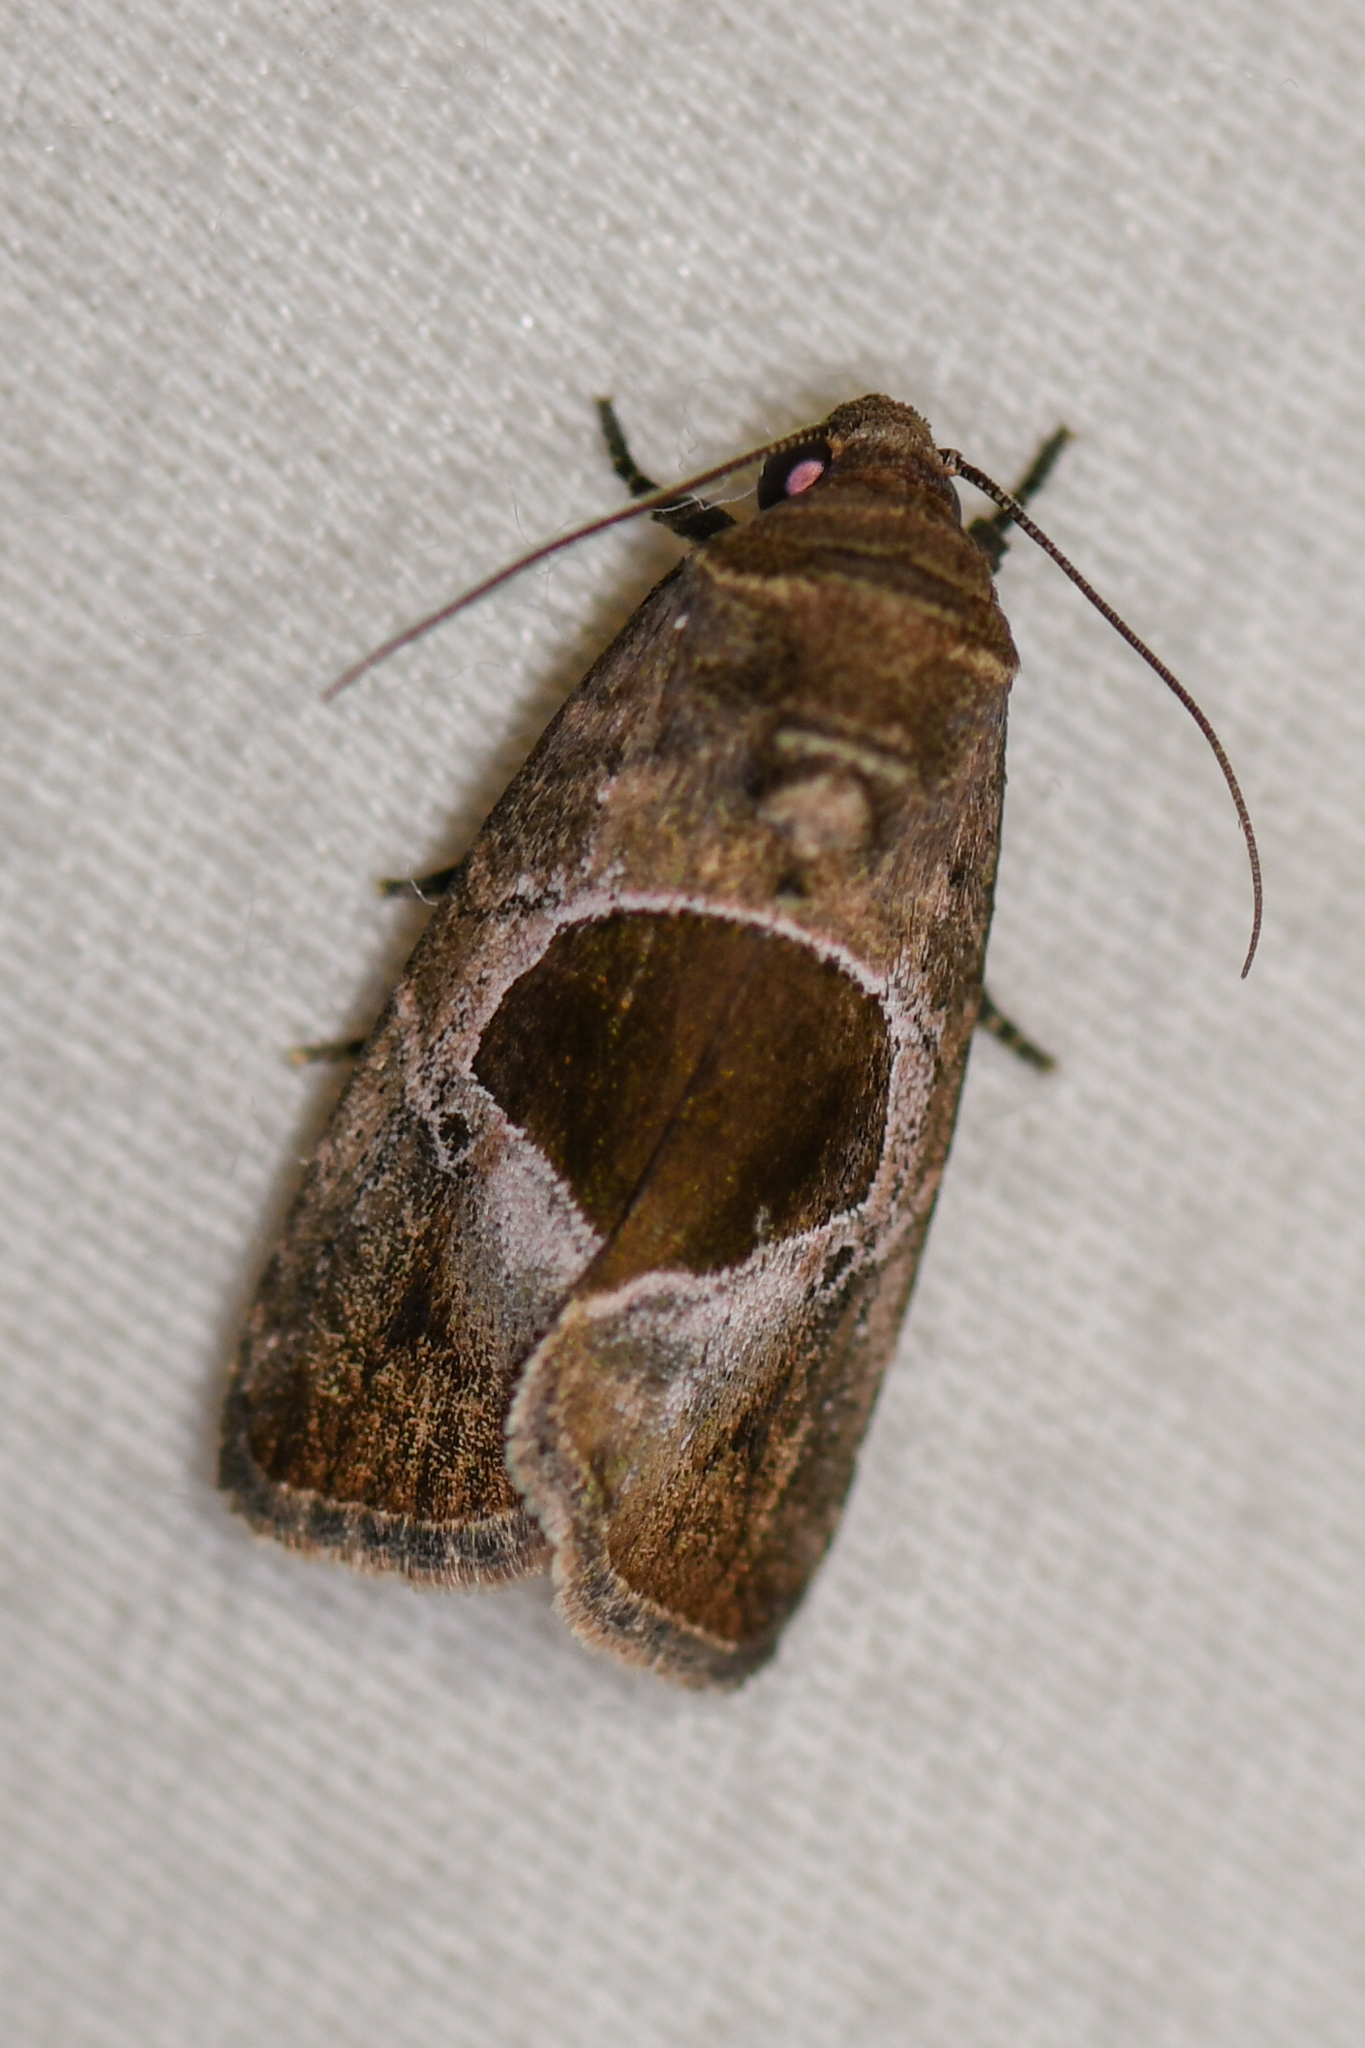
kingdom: Animalia
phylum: Arthropoda
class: Insecta
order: Lepidoptera
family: Noctuidae
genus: Elaphria
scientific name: Elaphria deltoides
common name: Cutworm moth
